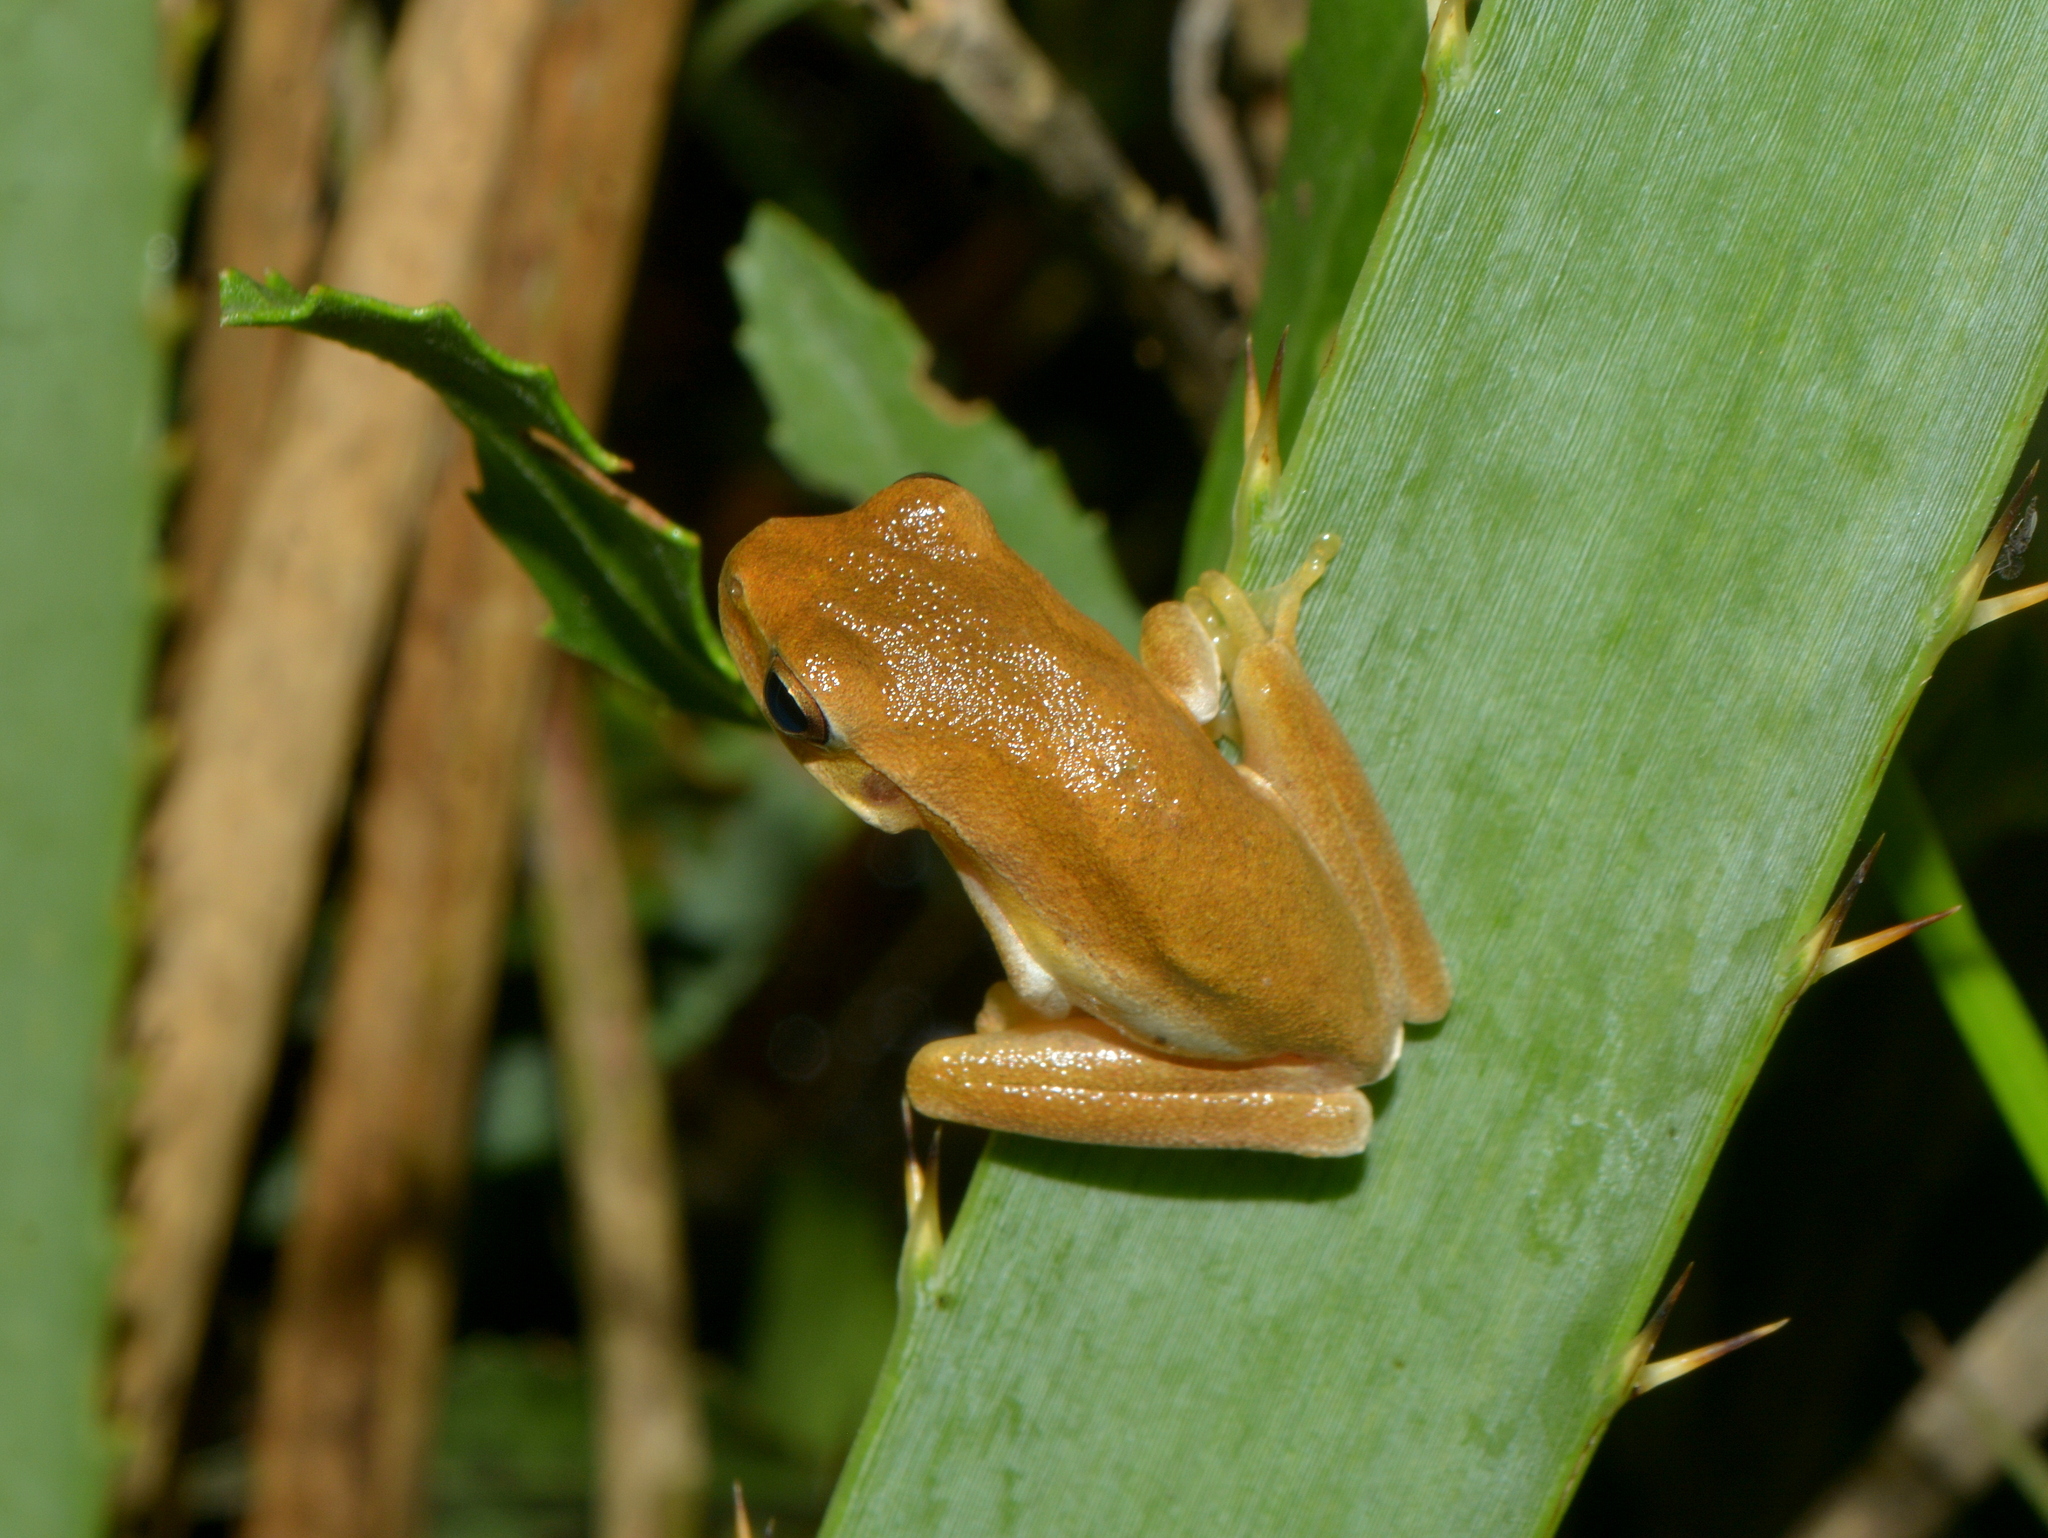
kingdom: Animalia
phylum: Chordata
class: Amphibia
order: Anura
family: Hylidae
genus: Boana
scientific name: Boana pulchella
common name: Montevideo treefrog
